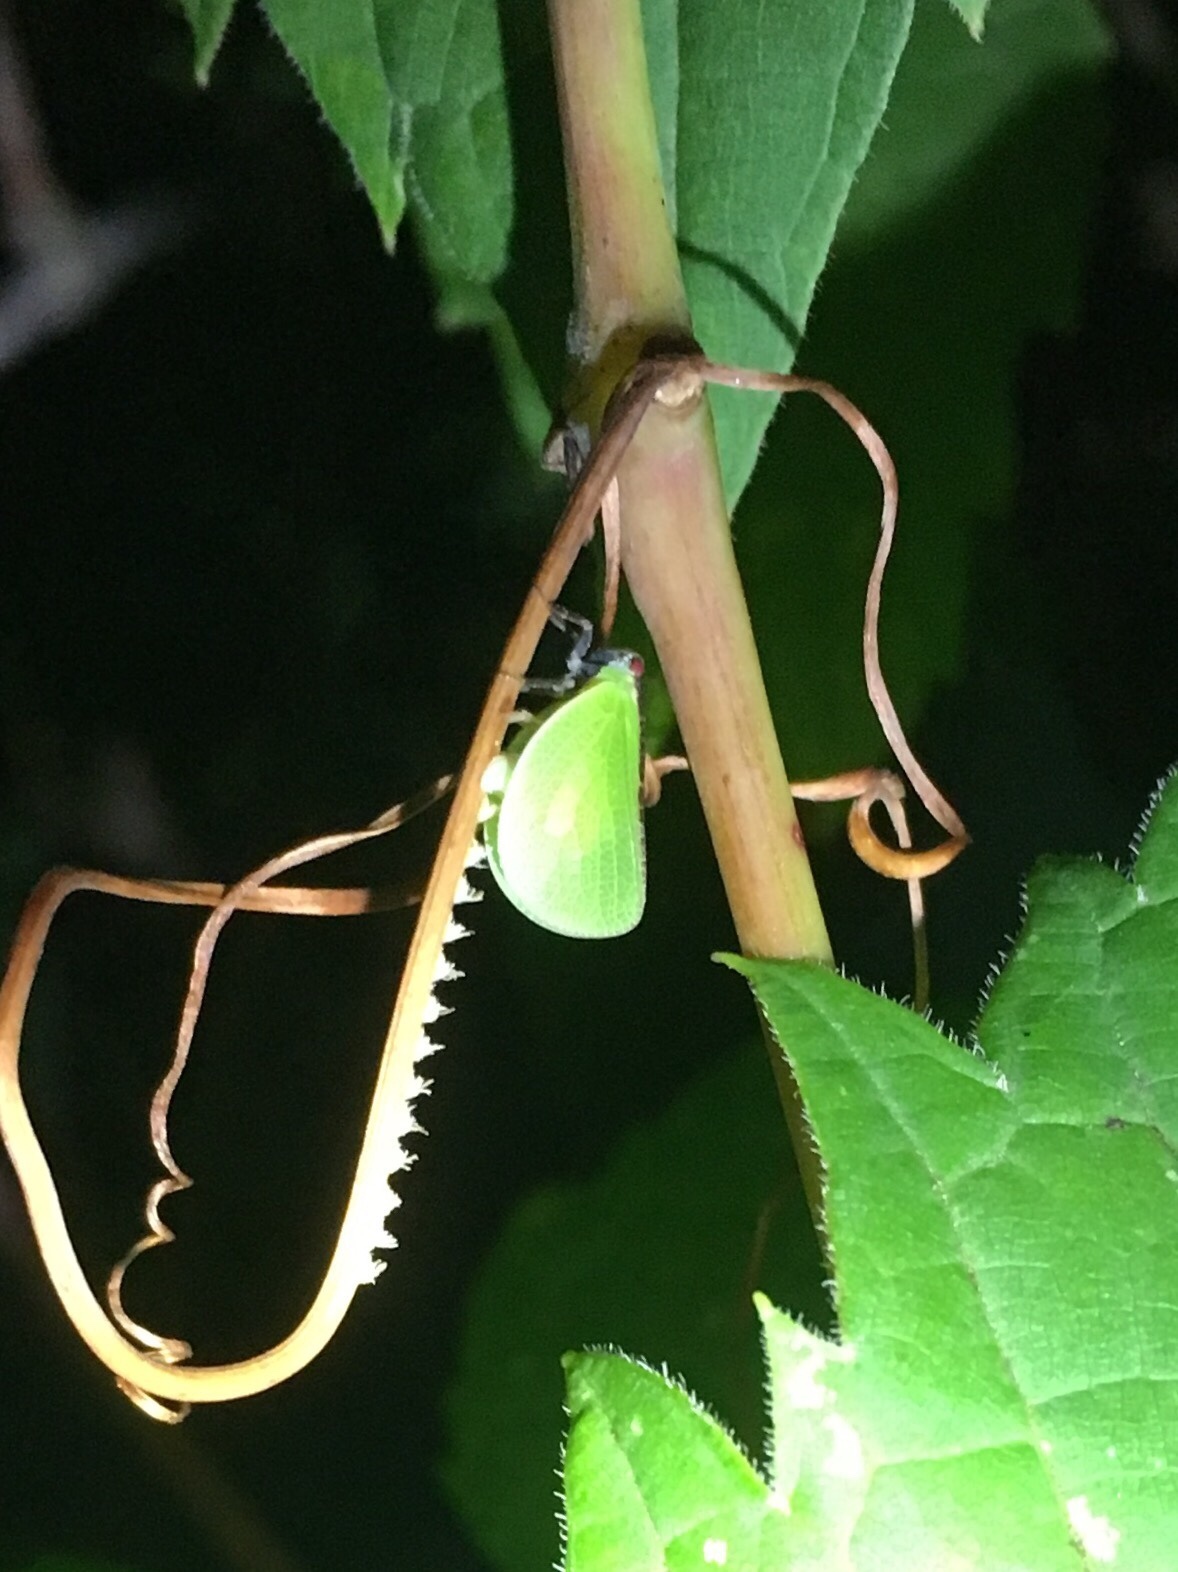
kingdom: Animalia
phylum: Arthropoda
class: Insecta
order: Hemiptera
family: Acanaloniidae
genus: Acanalonia
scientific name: Acanalonia bivittata
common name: Two-striped planthopper
